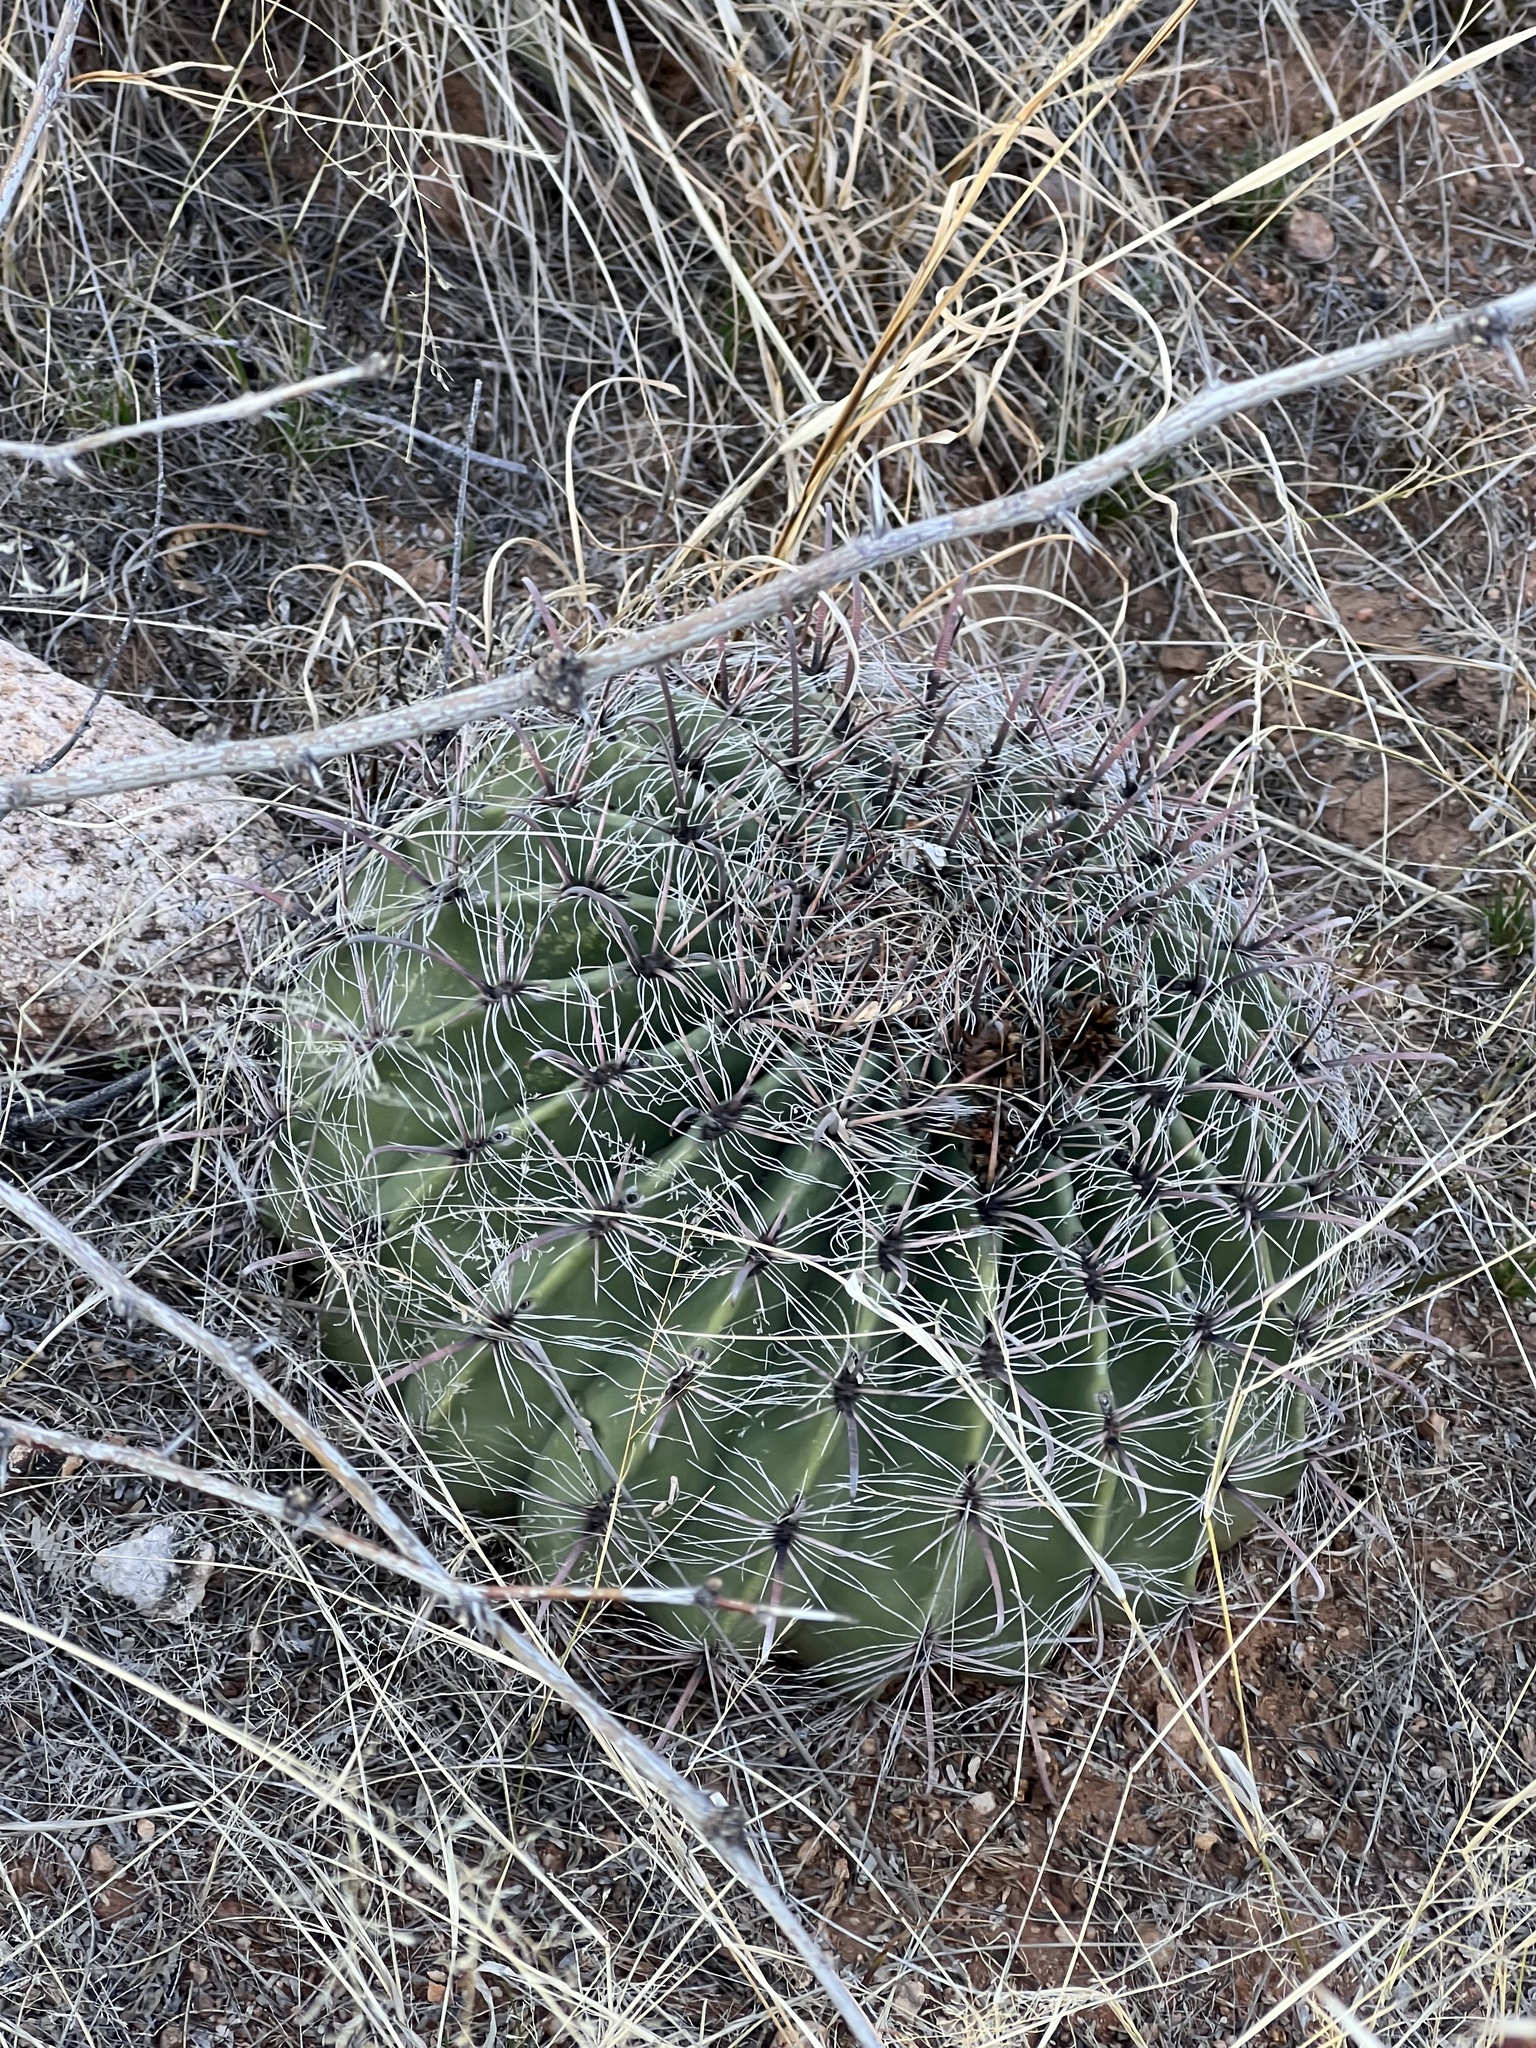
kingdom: Plantae
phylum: Tracheophyta
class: Magnoliopsida
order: Caryophyllales
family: Cactaceae
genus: Ferocactus
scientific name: Ferocactus wislizeni
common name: Candy barrel cactus
